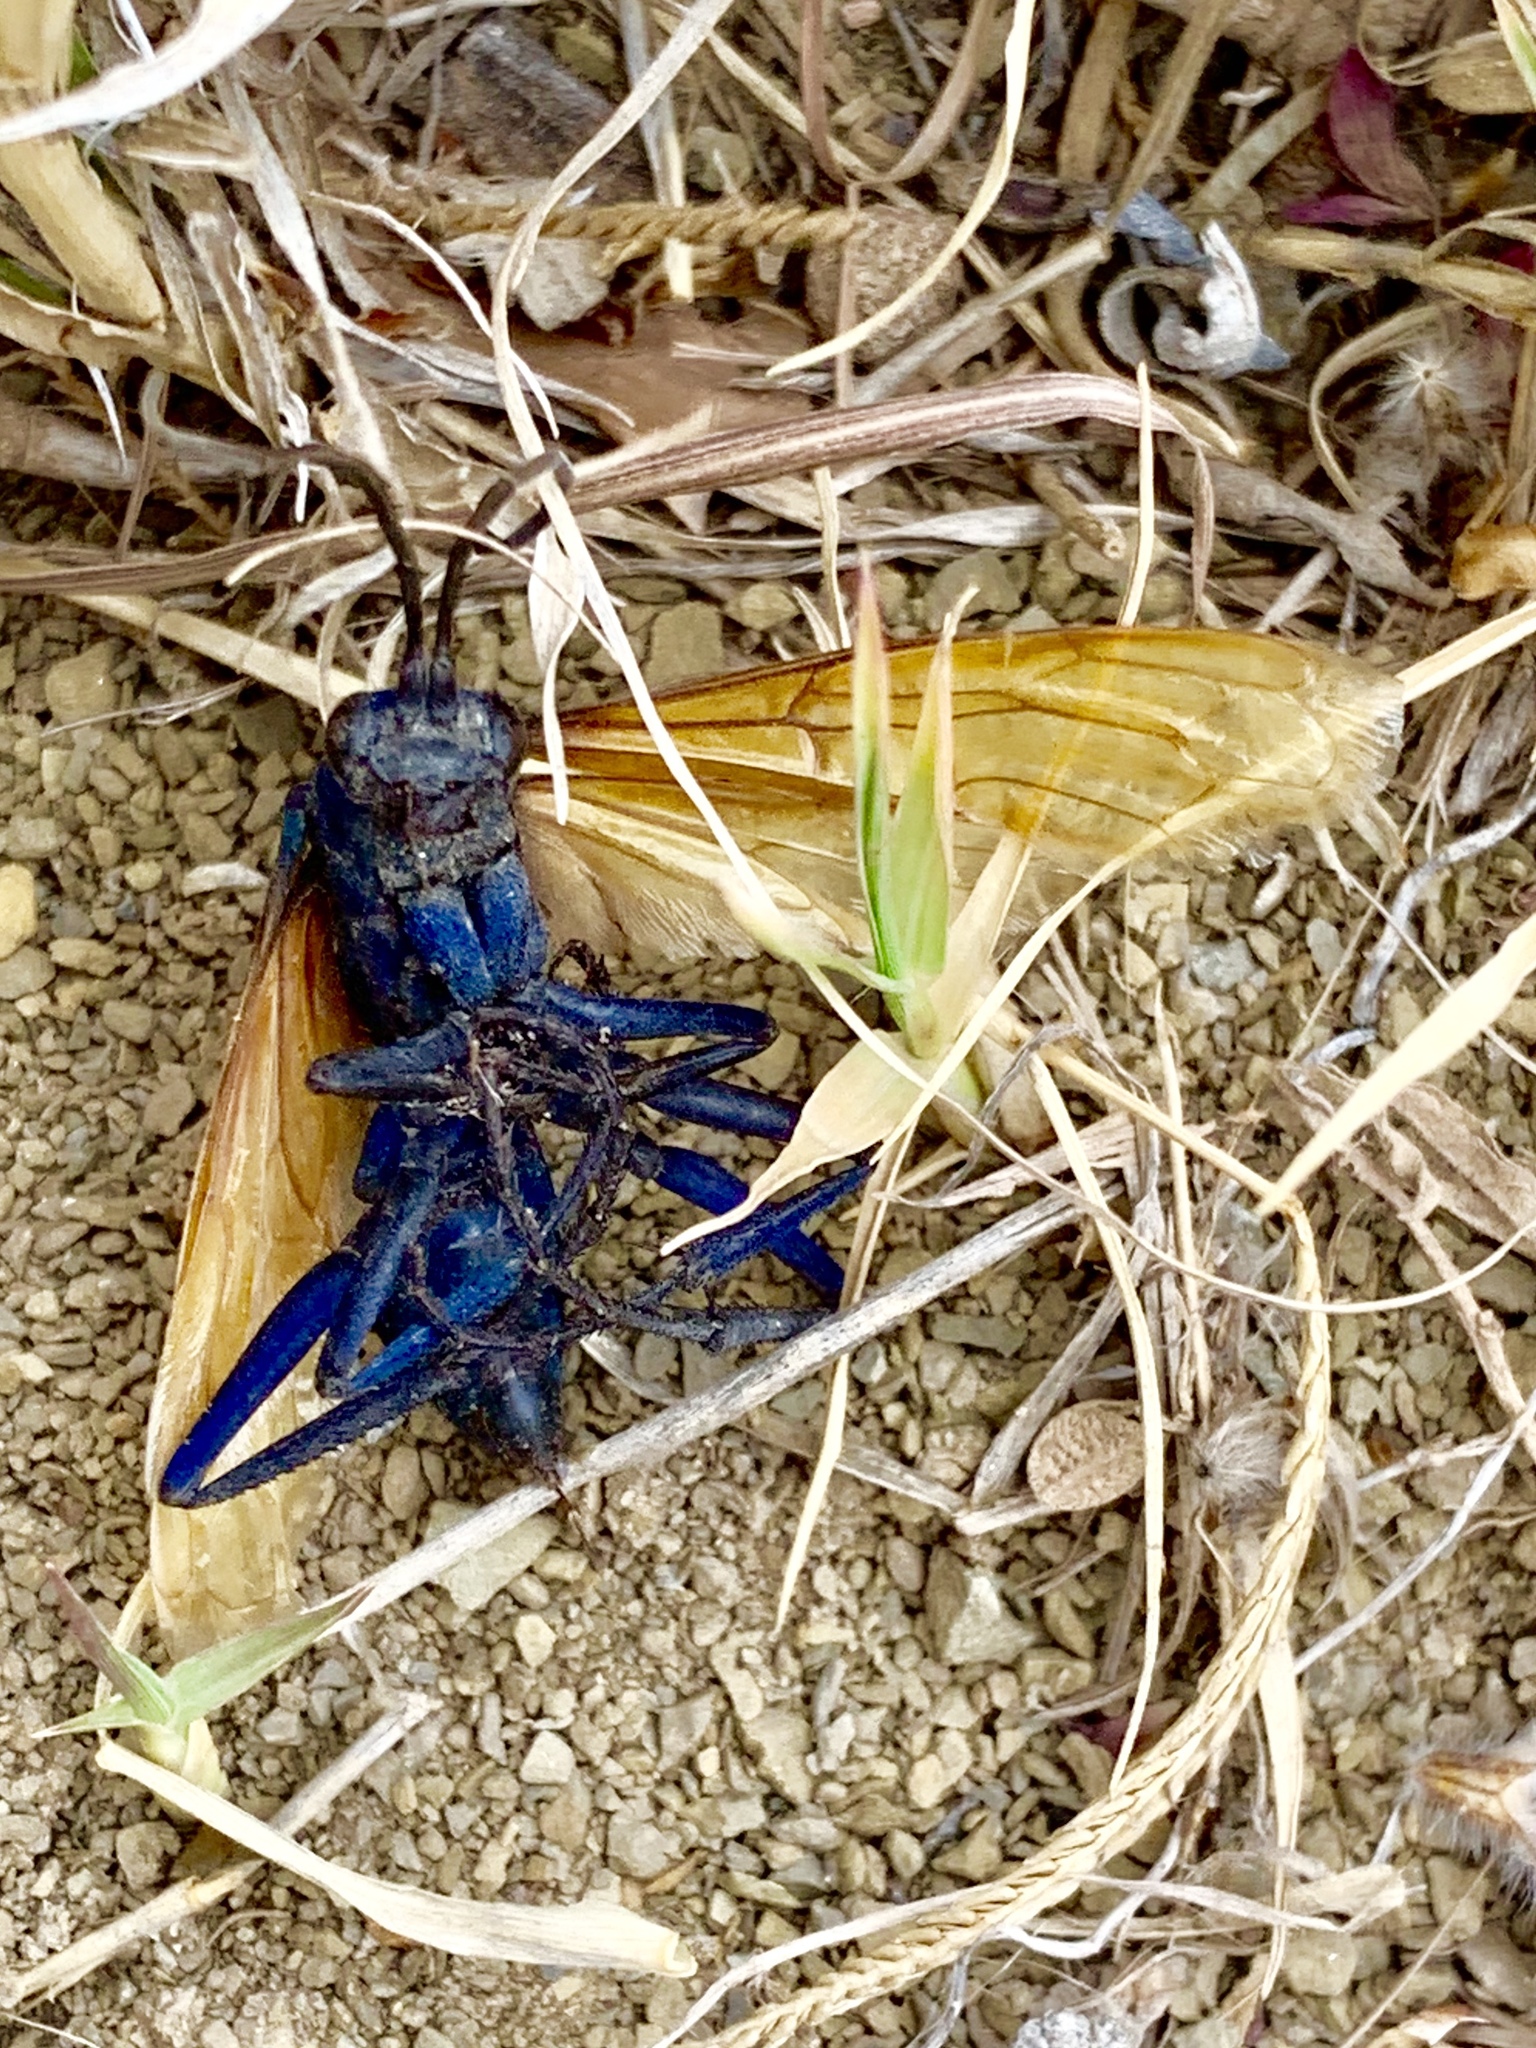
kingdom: Animalia
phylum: Arthropoda
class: Insecta
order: Hymenoptera
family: Pompilidae
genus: Pepsis
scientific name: Pepsis pallidolimbata
